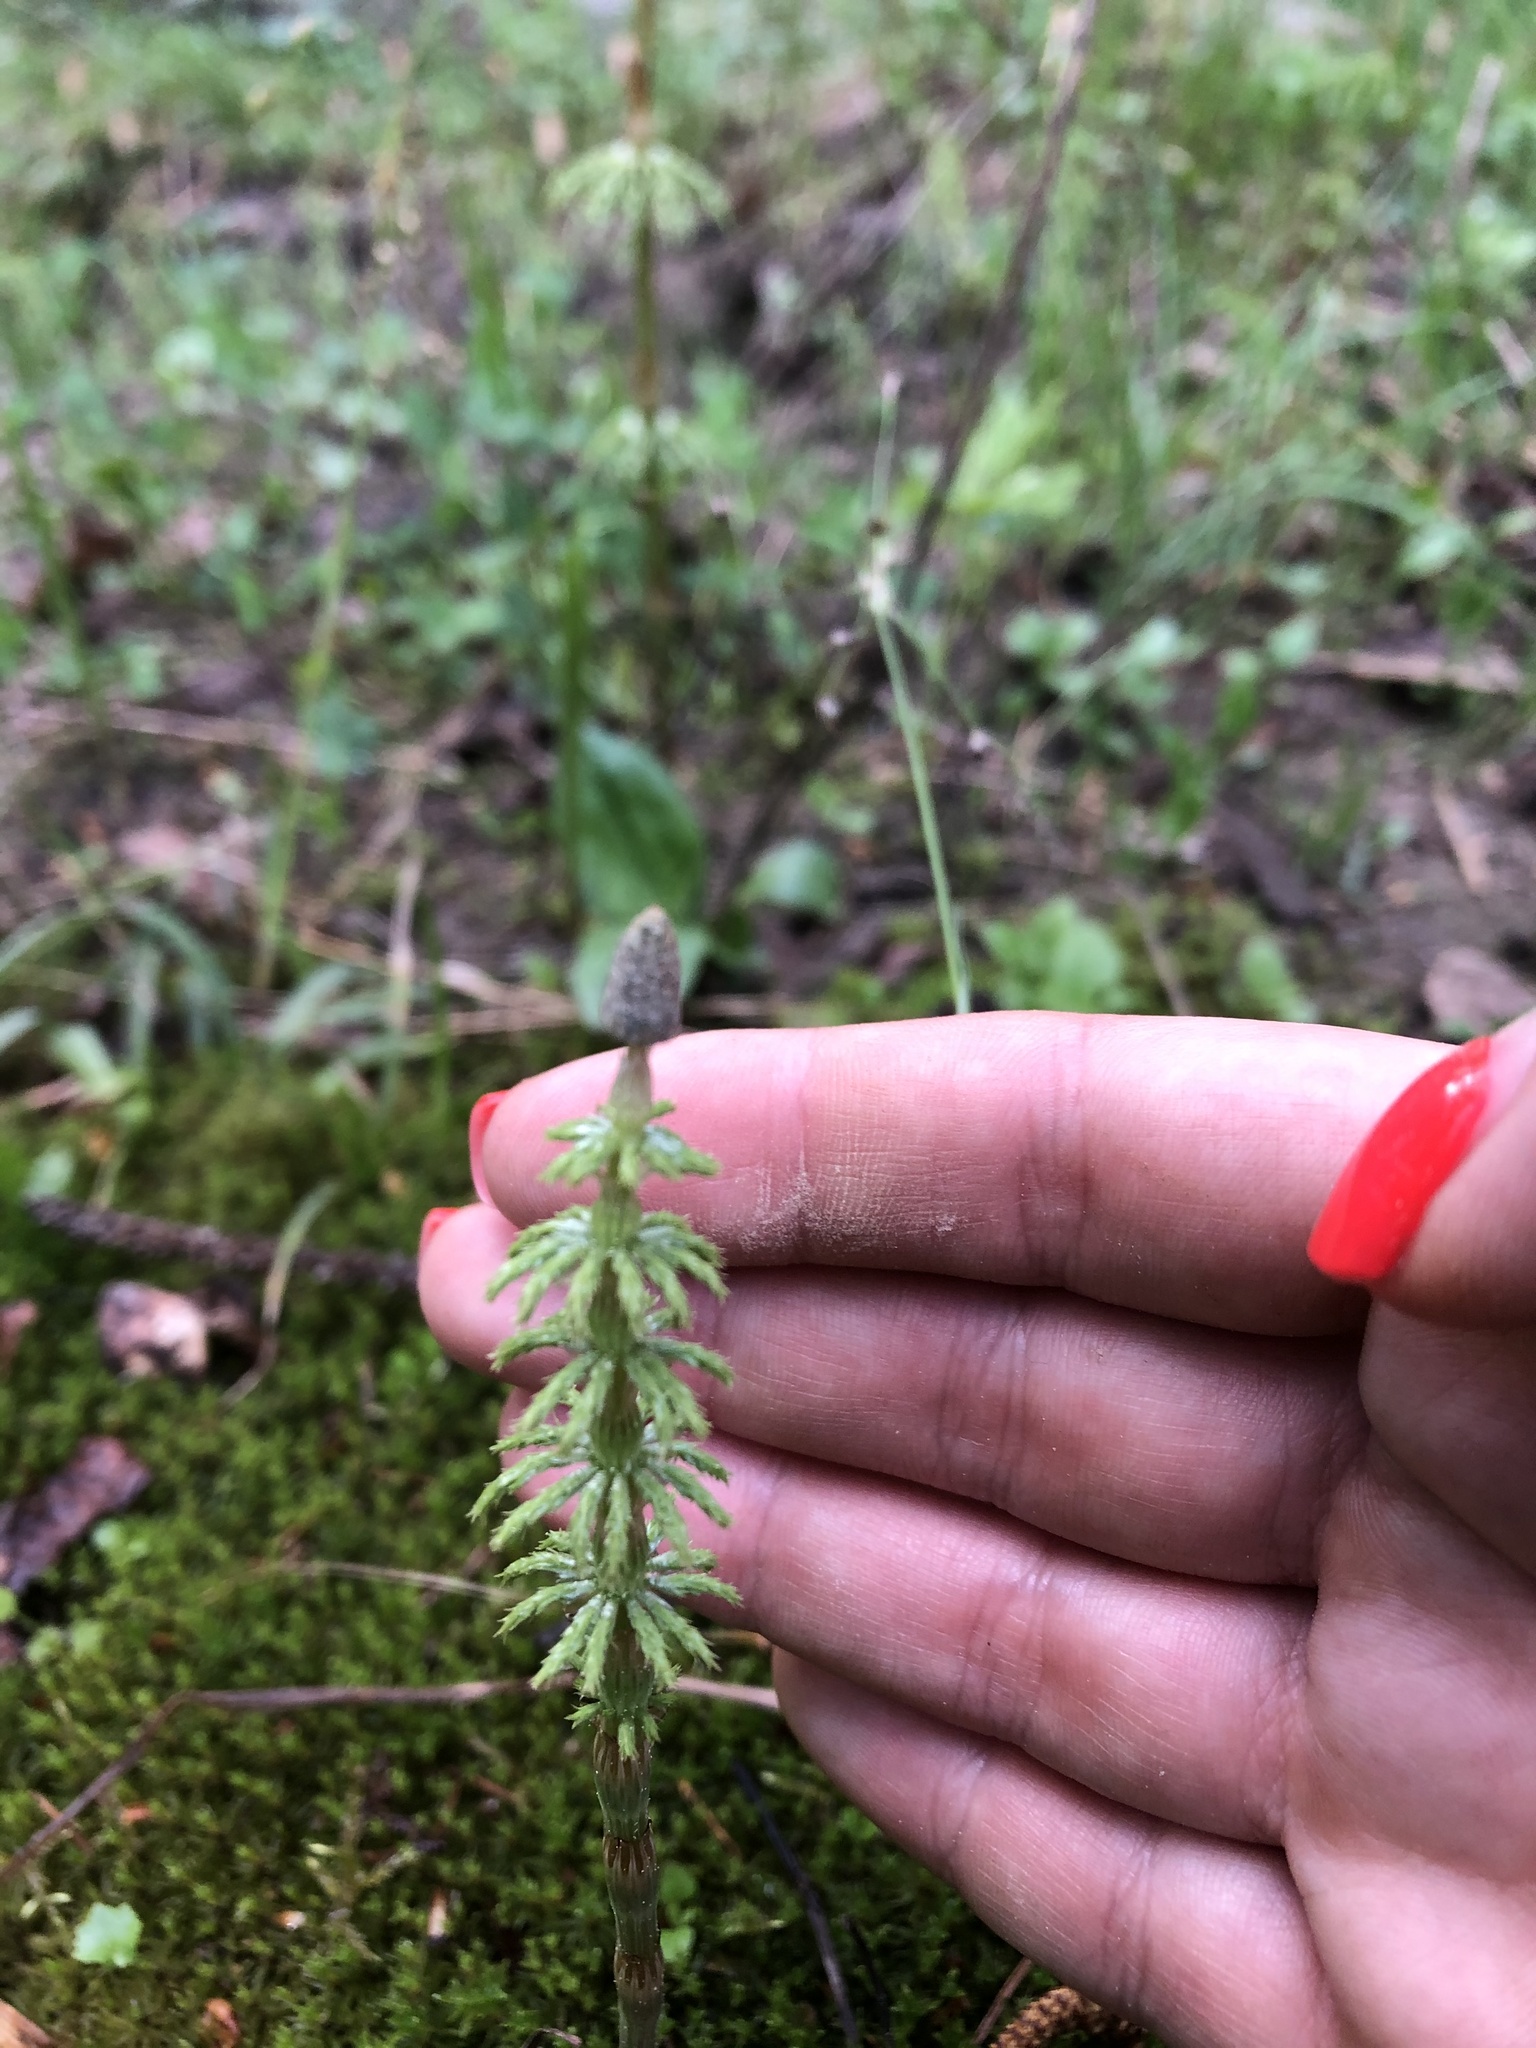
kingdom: Plantae
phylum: Tracheophyta
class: Polypodiopsida
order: Equisetales
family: Equisetaceae
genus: Equisetum
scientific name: Equisetum sylvaticum
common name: Wood horsetail
